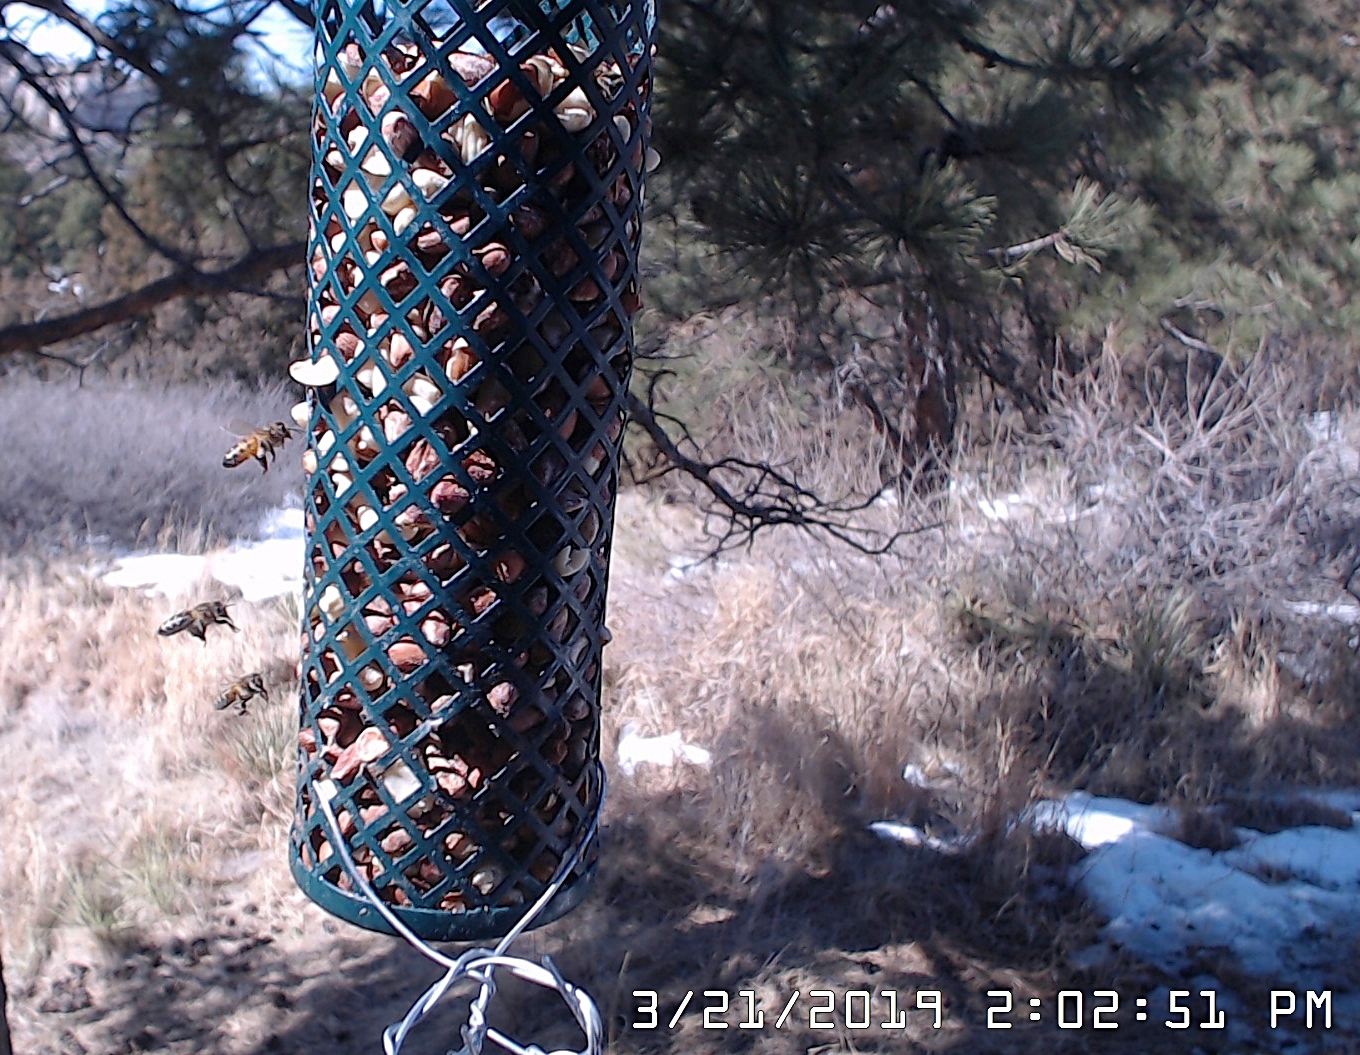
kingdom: Animalia
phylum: Arthropoda
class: Insecta
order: Hymenoptera
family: Apidae
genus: Apis
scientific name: Apis mellifera
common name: Honey bee
